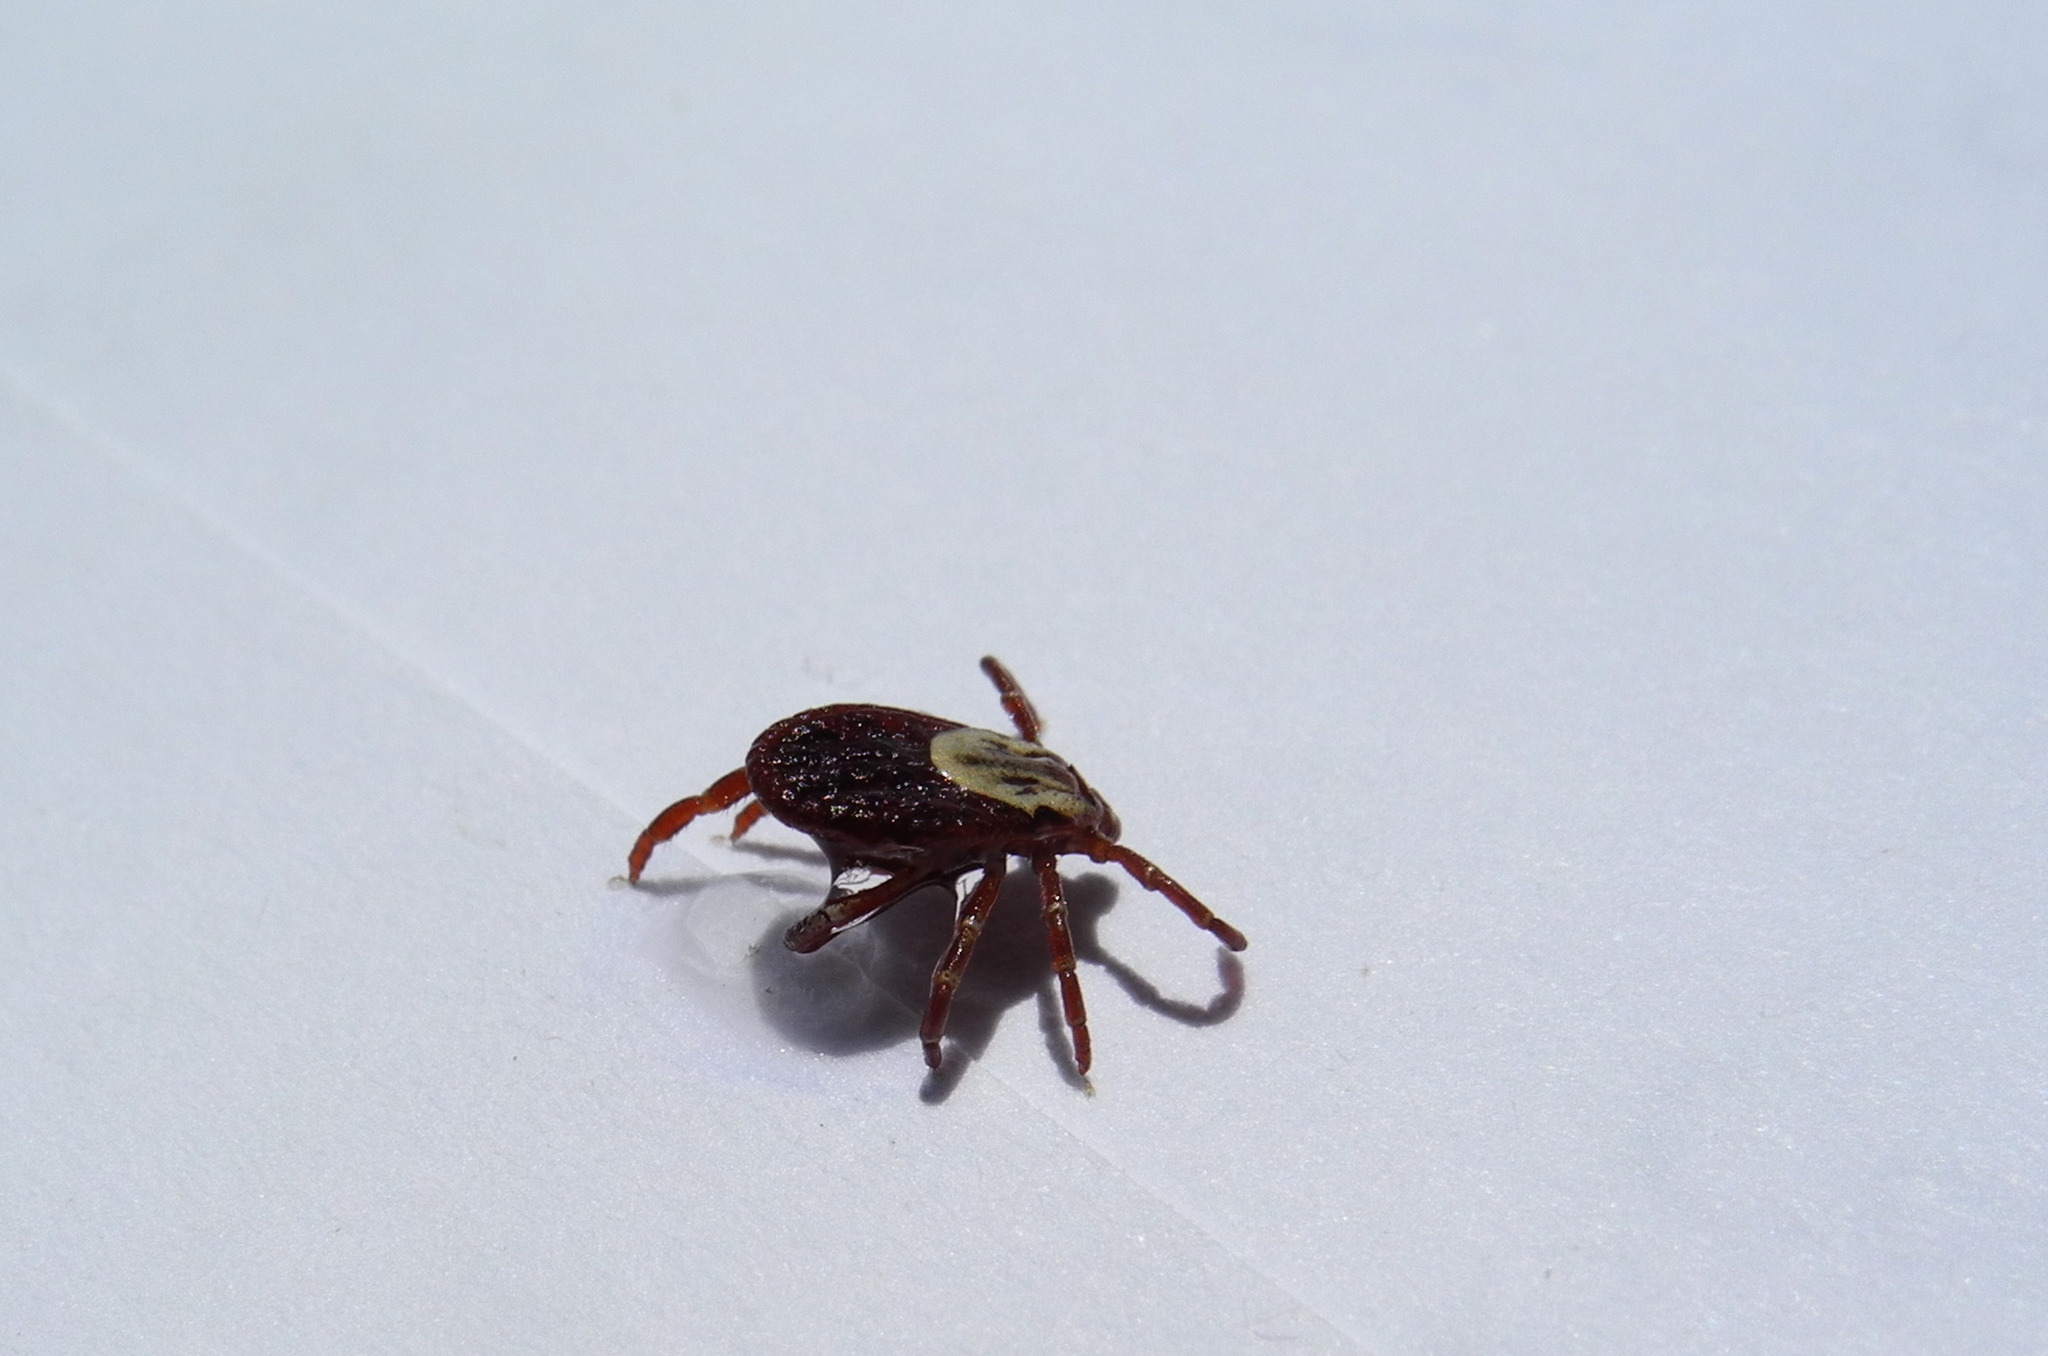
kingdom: Animalia
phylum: Arthropoda
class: Arachnida
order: Ixodida
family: Ixodidae
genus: Dermacentor
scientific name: Dermacentor variabilis
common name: American dog tick
